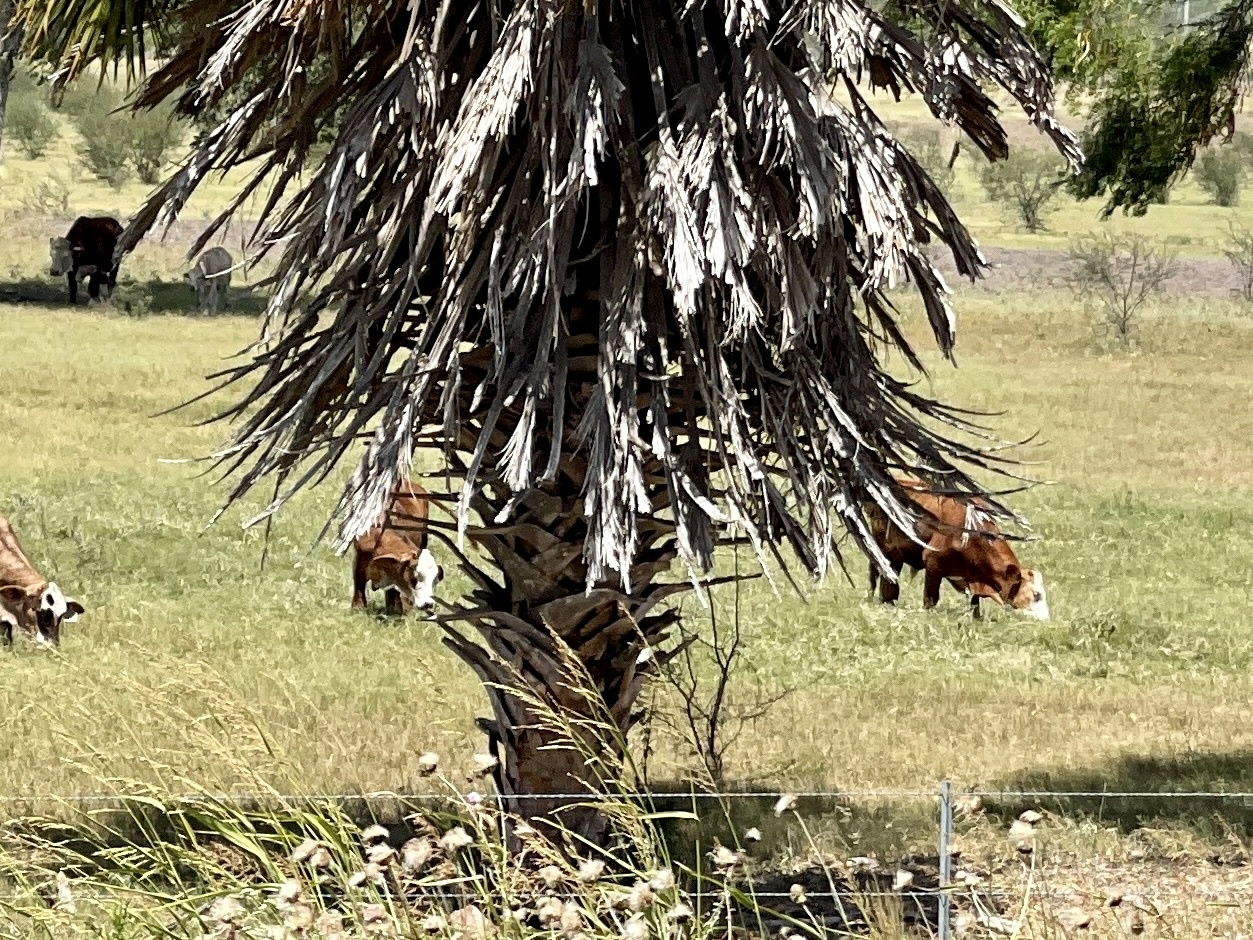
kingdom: Plantae
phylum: Tracheophyta
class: Liliopsida
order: Arecales
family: Arecaceae
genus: Washingtonia
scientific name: Washingtonia robusta
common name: Mexican fan palm
